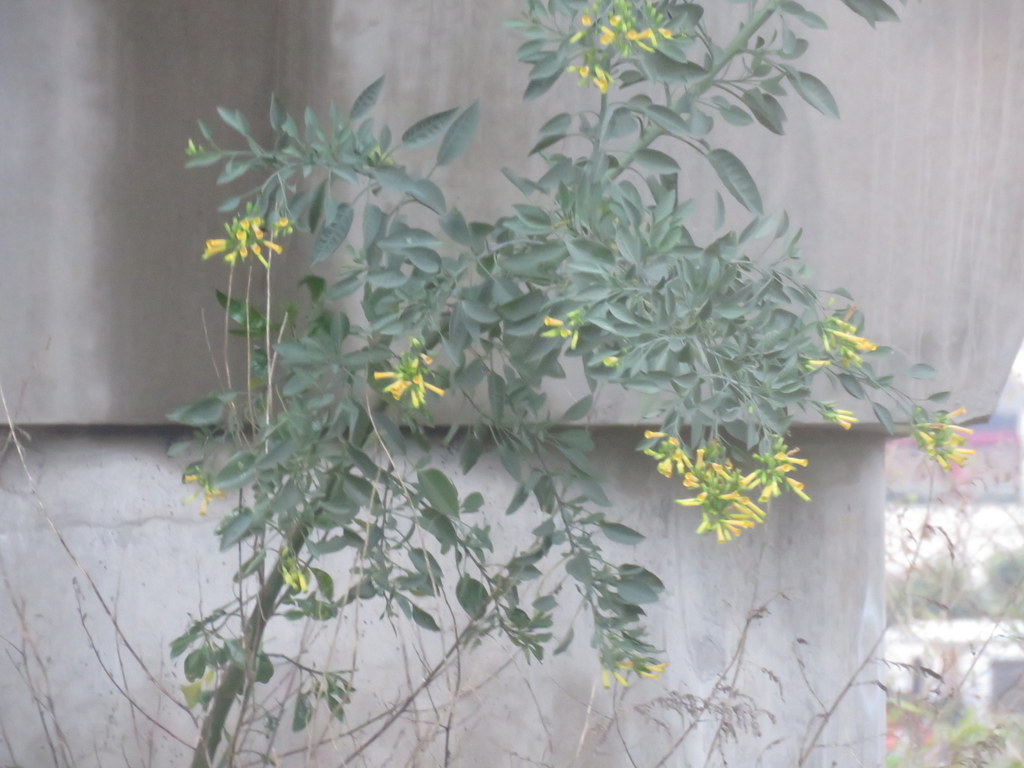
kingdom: Plantae
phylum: Tracheophyta
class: Magnoliopsida
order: Solanales
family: Solanaceae
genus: Nicotiana
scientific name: Nicotiana glauca
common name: Tree tobacco
